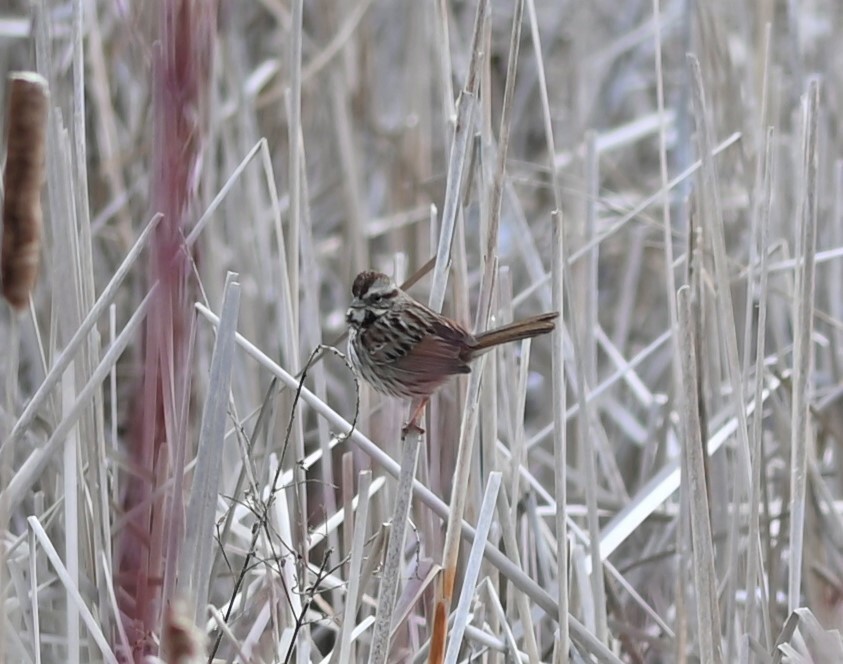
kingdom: Animalia
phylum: Chordata
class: Aves
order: Passeriformes
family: Passerellidae
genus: Melospiza
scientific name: Melospiza melodia
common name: Song sparrow
